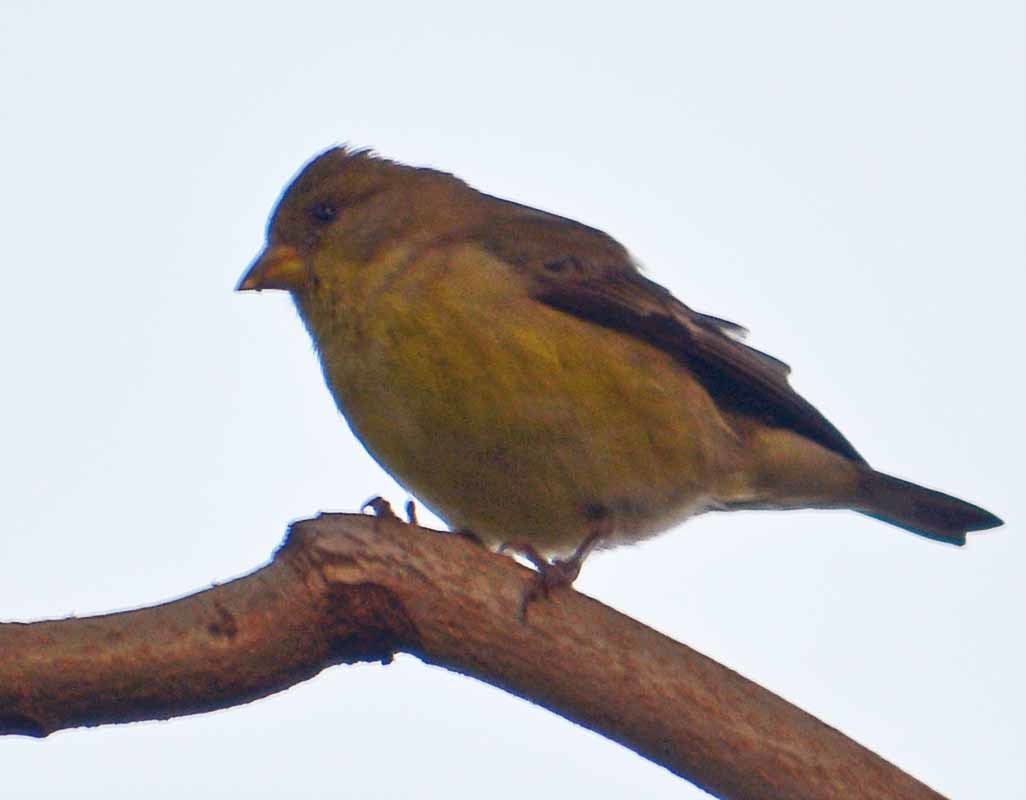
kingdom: Animalia
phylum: Chordata
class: Aves
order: Passeriformes
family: Fringillidae
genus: Spinus
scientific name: Spinus psaltria
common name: Lesser goldfinch
